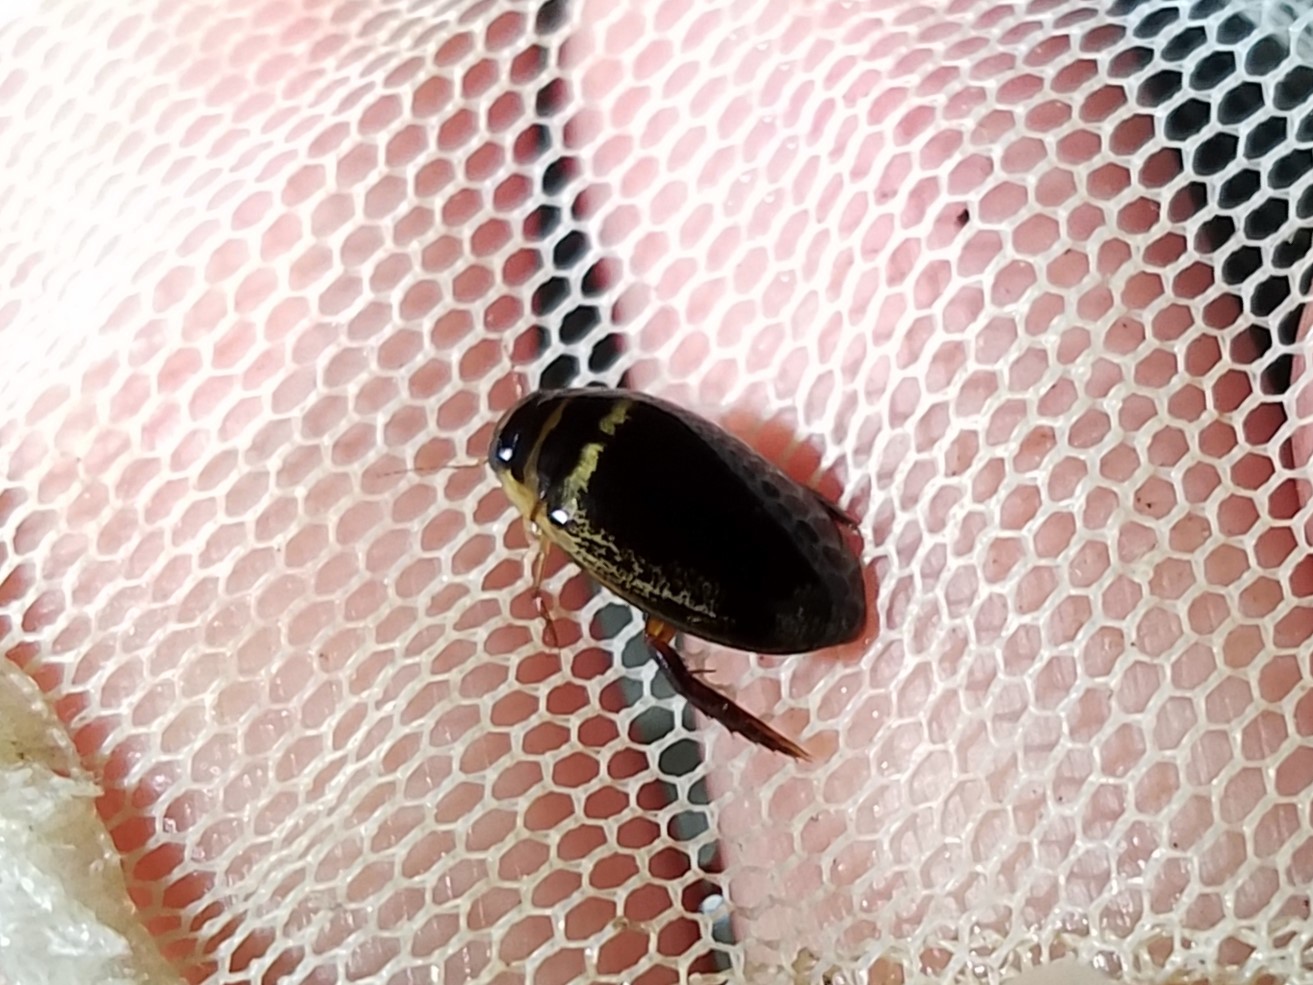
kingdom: Animalia
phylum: Arthropoda
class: Insecta
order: Coleoptera
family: Dytiscidae
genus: Thermonectus
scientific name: Thermonectus basillaris
